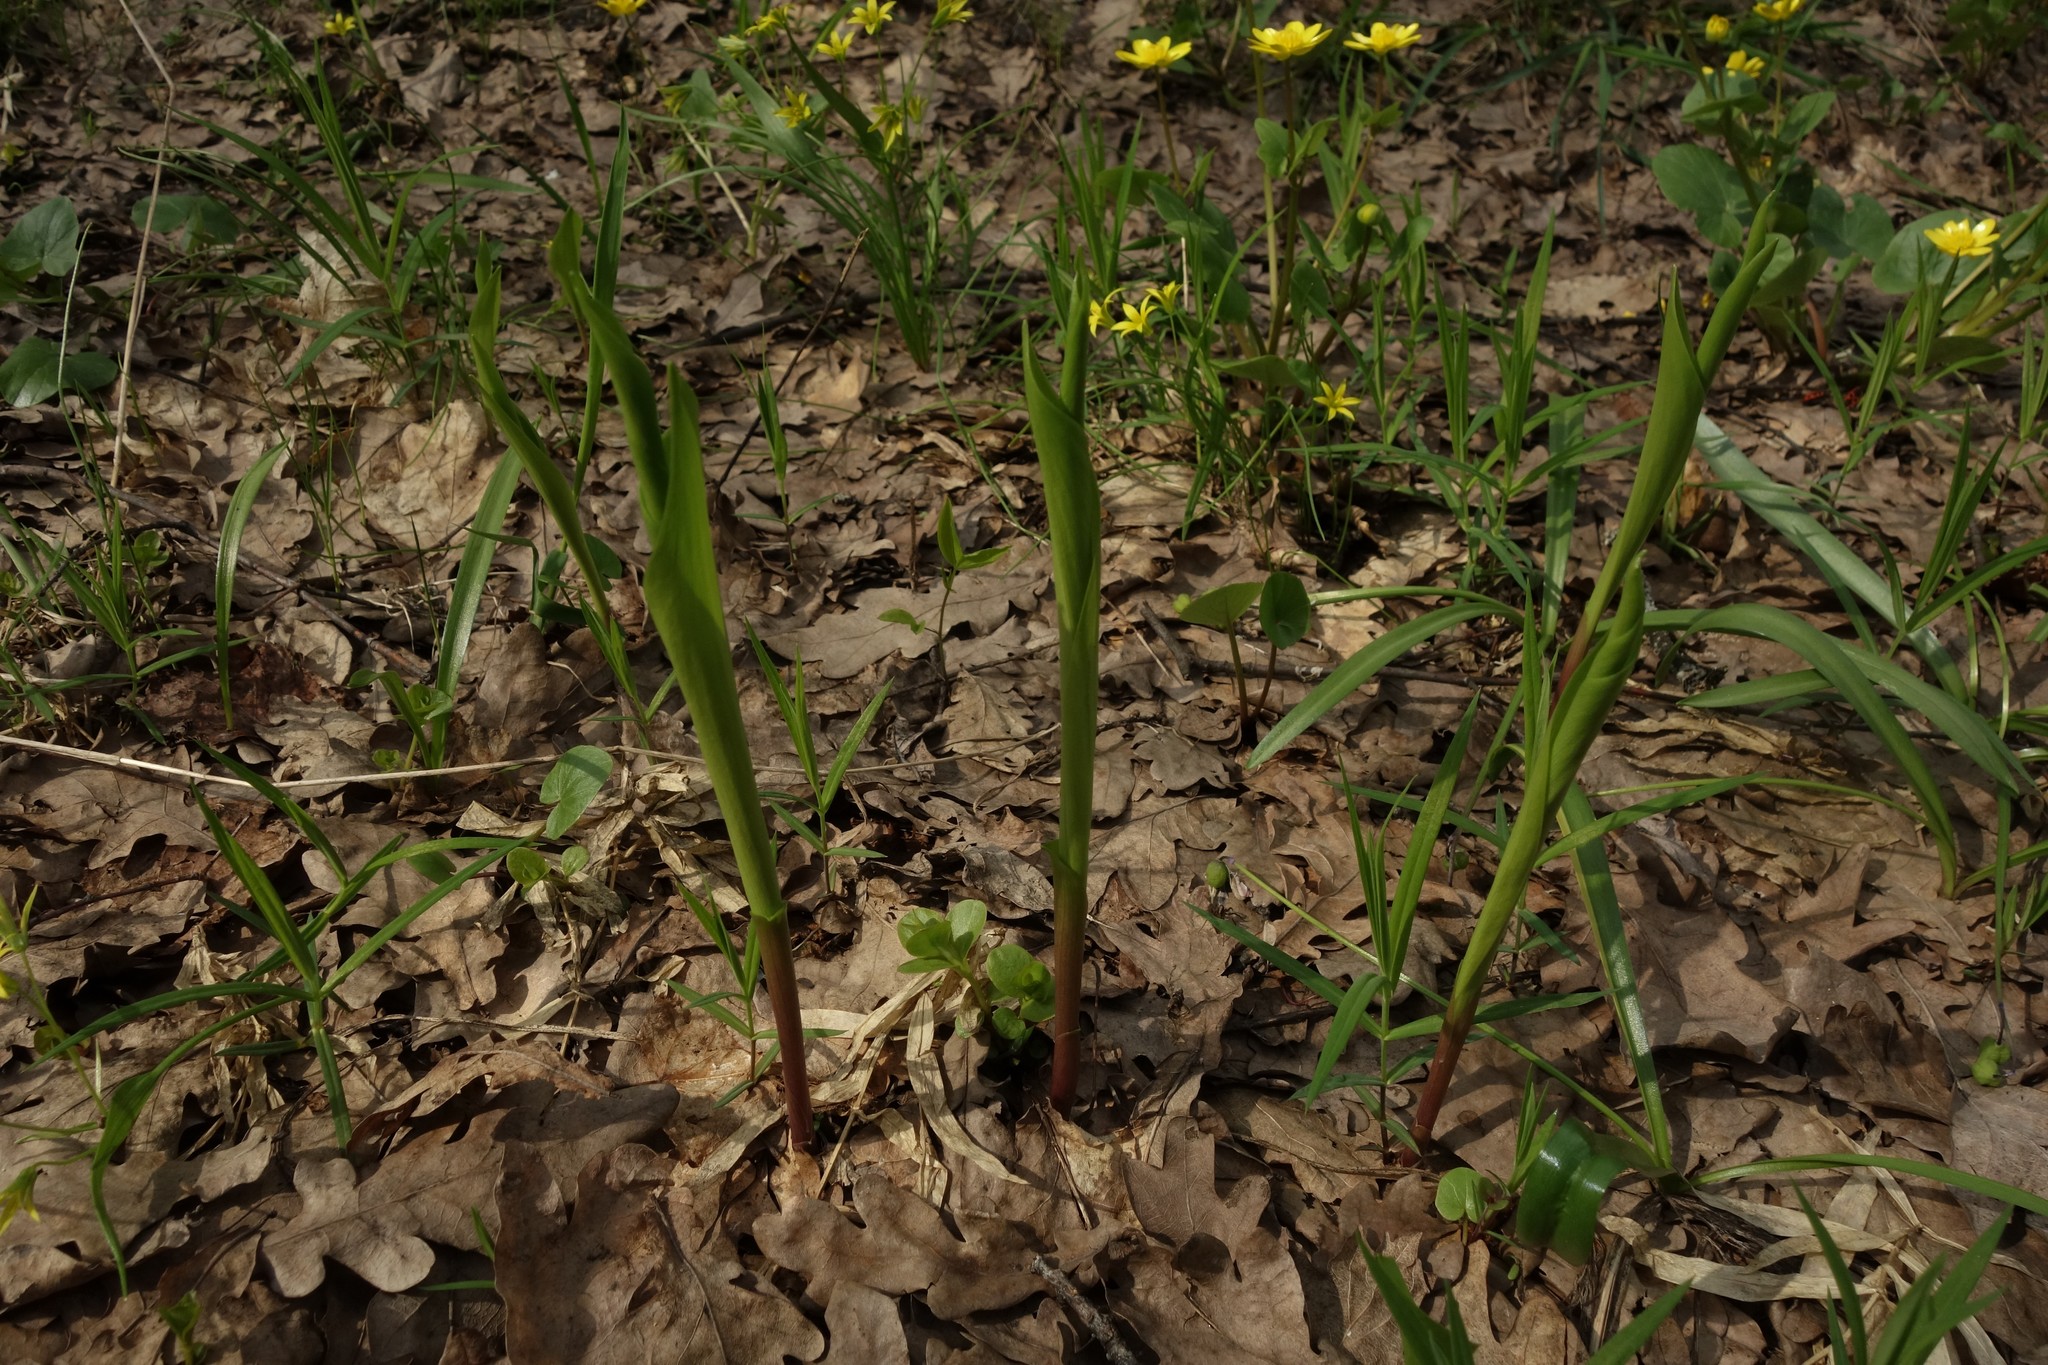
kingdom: Plantae
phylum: Tracheophyta
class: Liliopsida
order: Asparagales
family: Asparagaceae
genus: Convallaria
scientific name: Convallaria majalis
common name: Lily-of-the-valley
